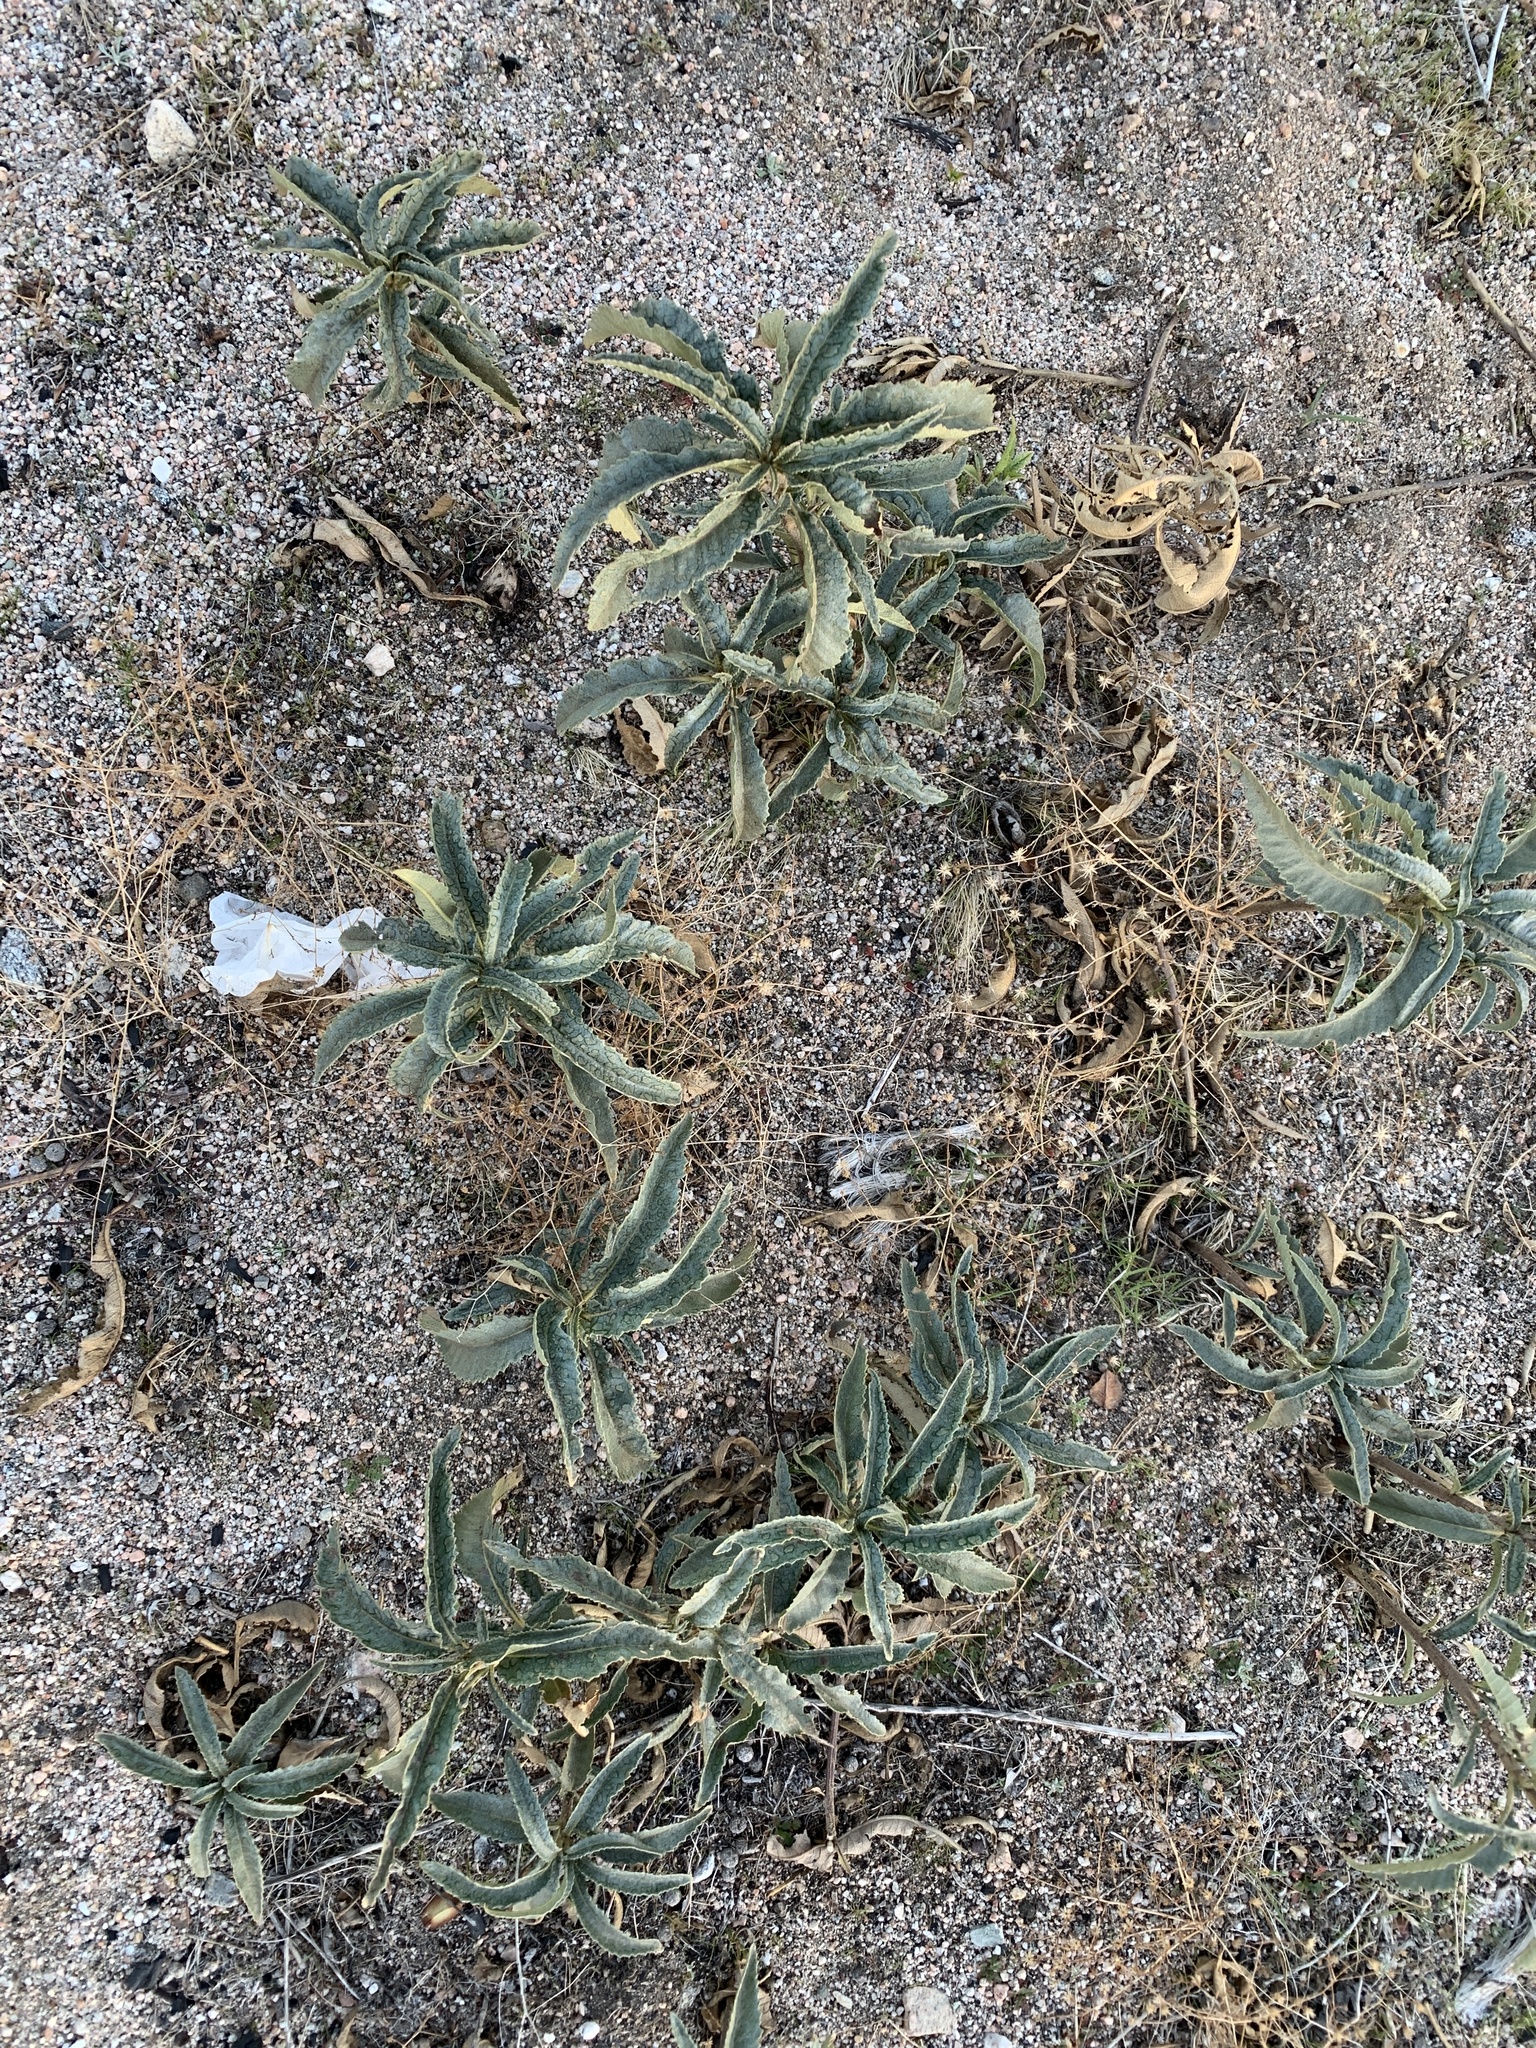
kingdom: Plantae
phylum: Tracheophyta
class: Magnoliopsida
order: Boraginales
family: Namaceae
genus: Eriodictyon
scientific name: Eriodictyon trichocalyx
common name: Hairy yerba-santa
